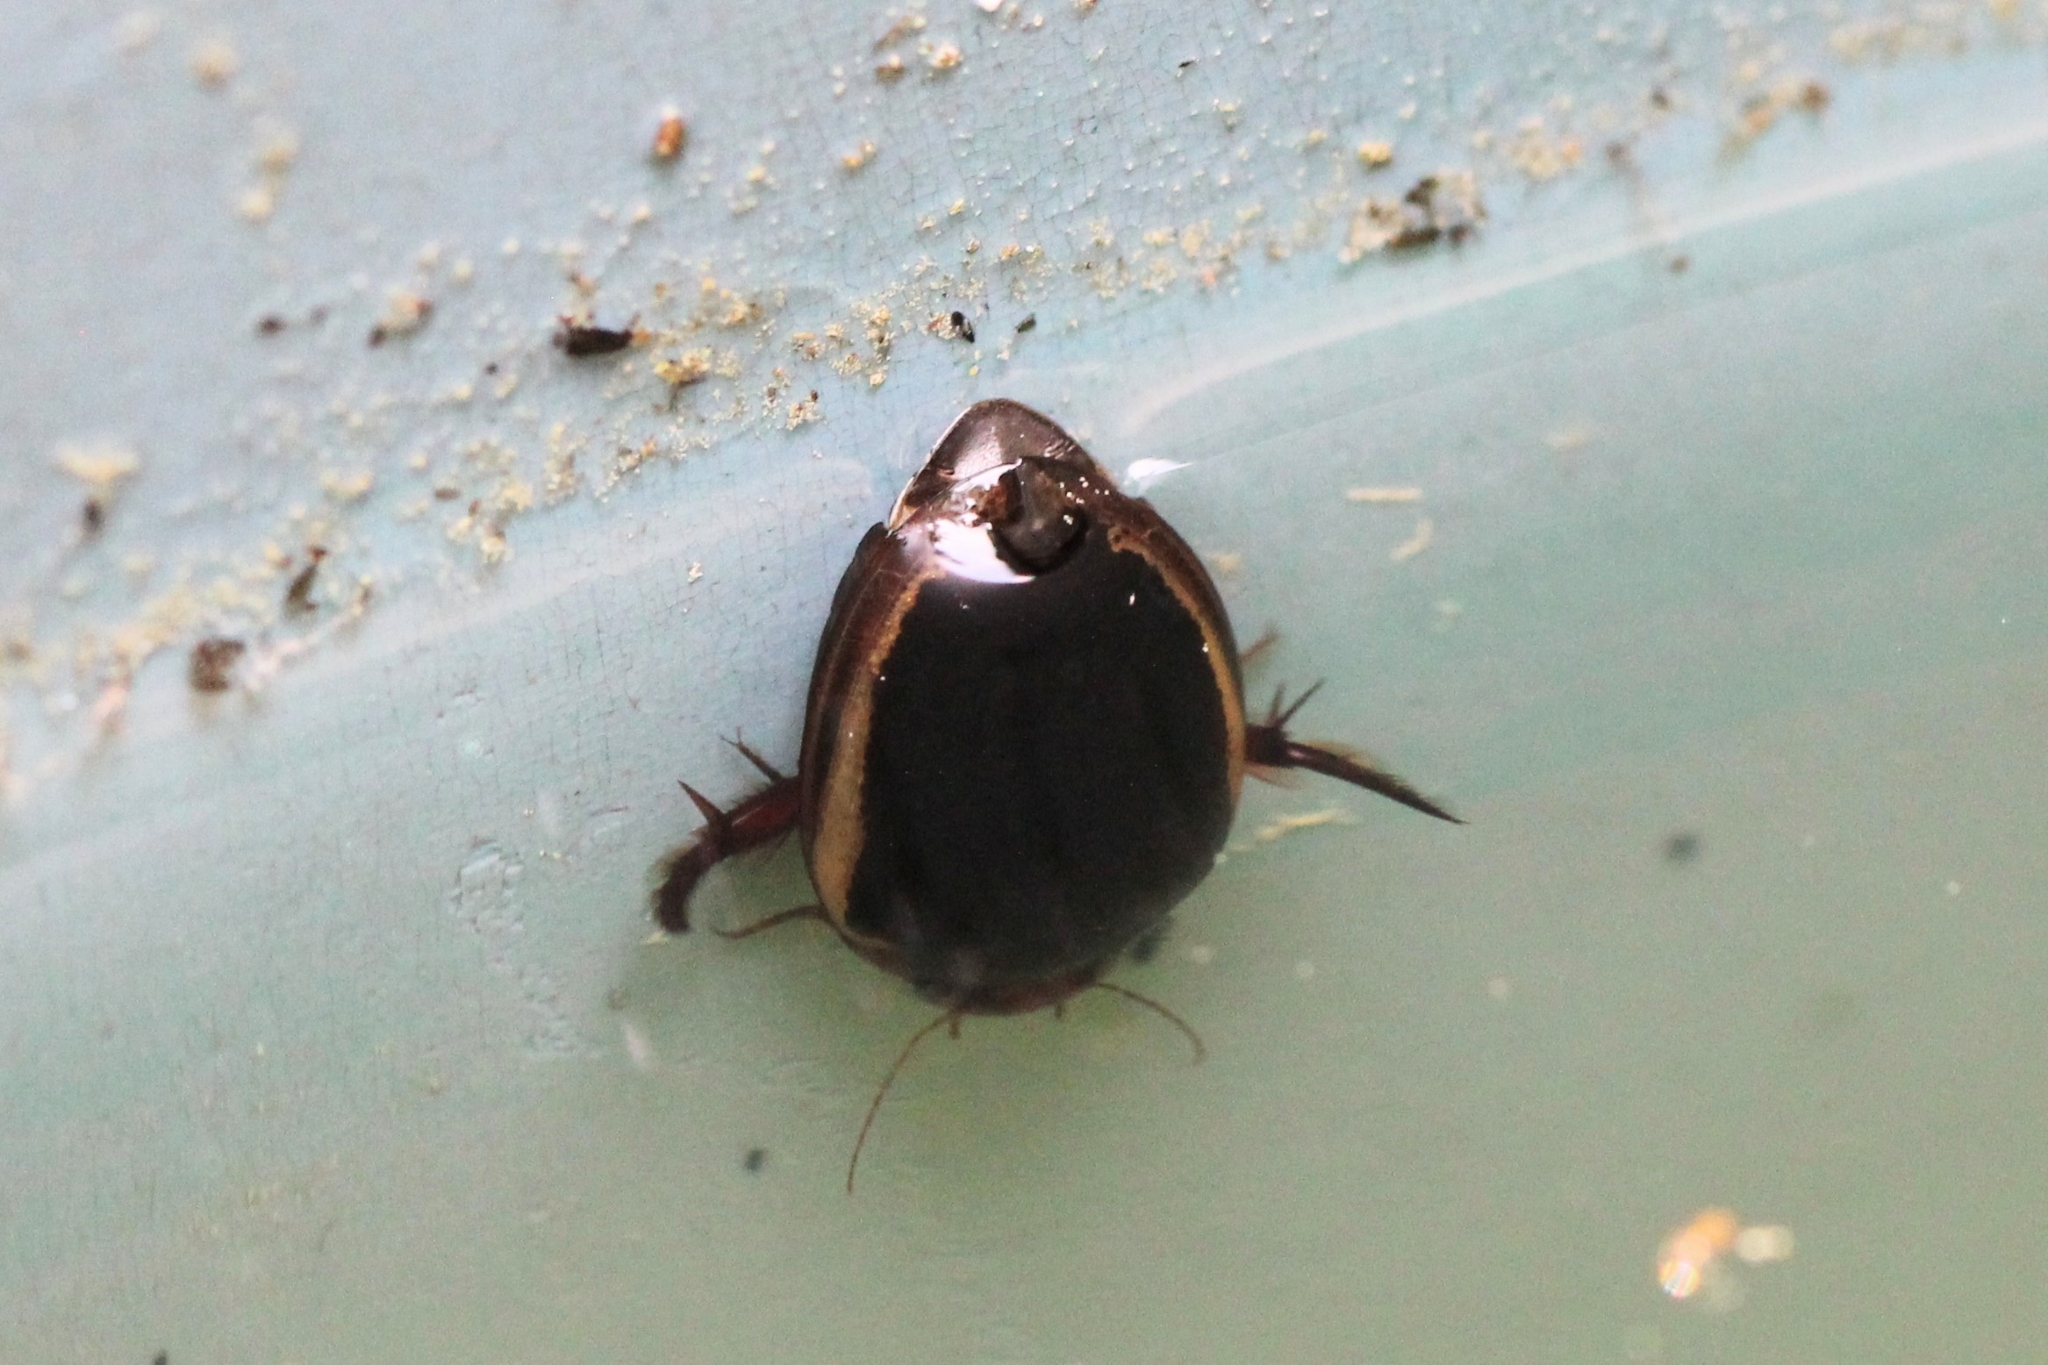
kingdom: Animalia
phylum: Arthropoda
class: Insecta
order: Coleoptera
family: Dytiscidae
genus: Hydaticus
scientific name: Hydaticus bimarginatus
